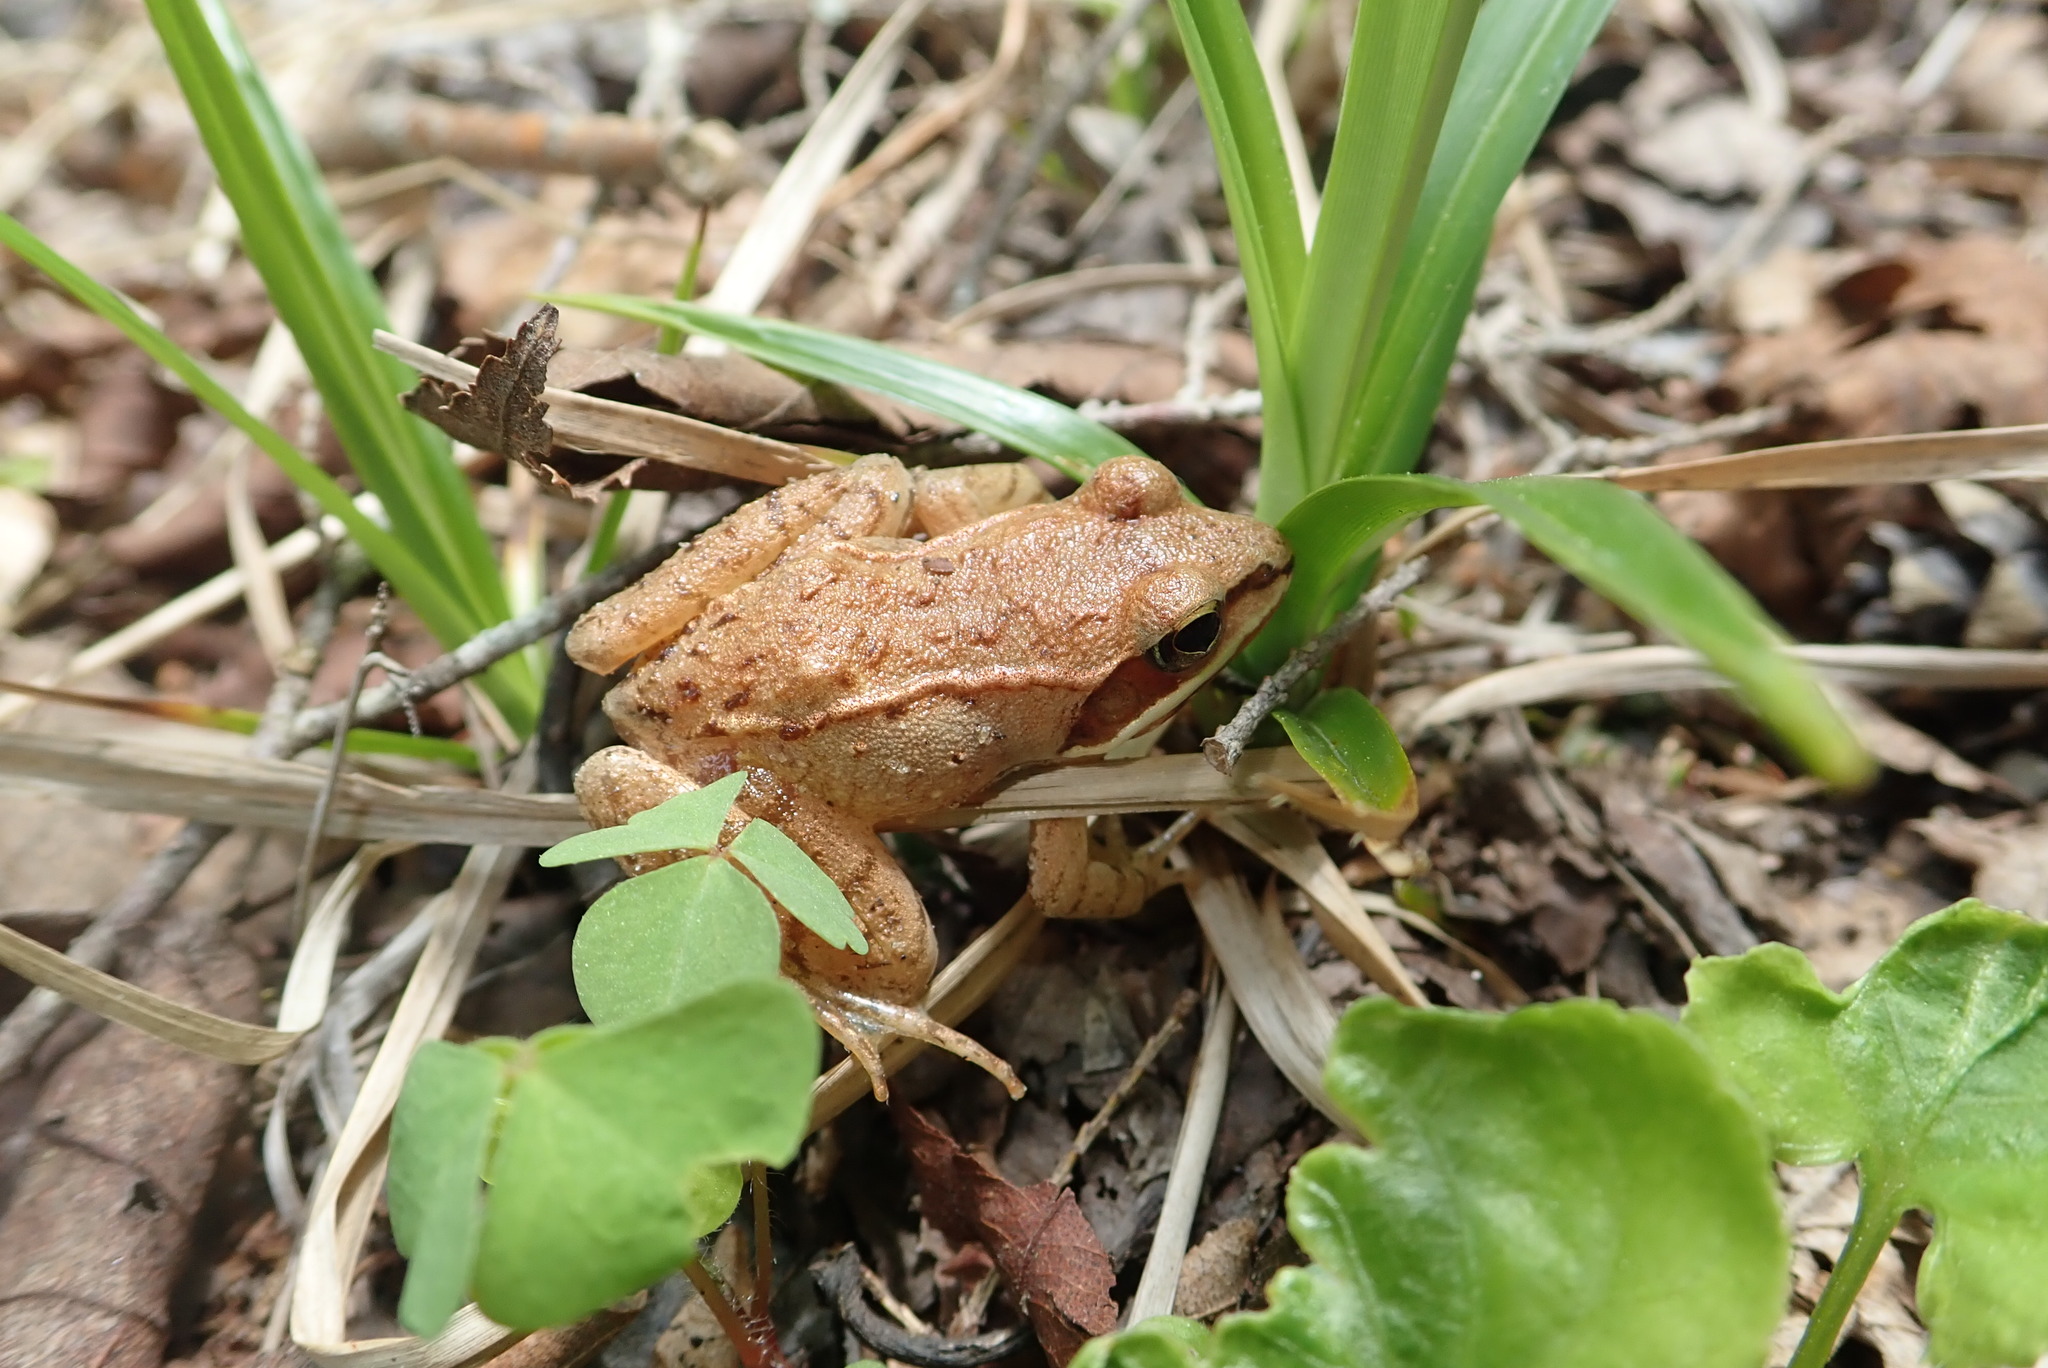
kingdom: Animalia
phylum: Chordata
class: Amphibia
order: Anura
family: Ranidae
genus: Lithobates
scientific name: Lithobates sylvaticus
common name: Wood frog
